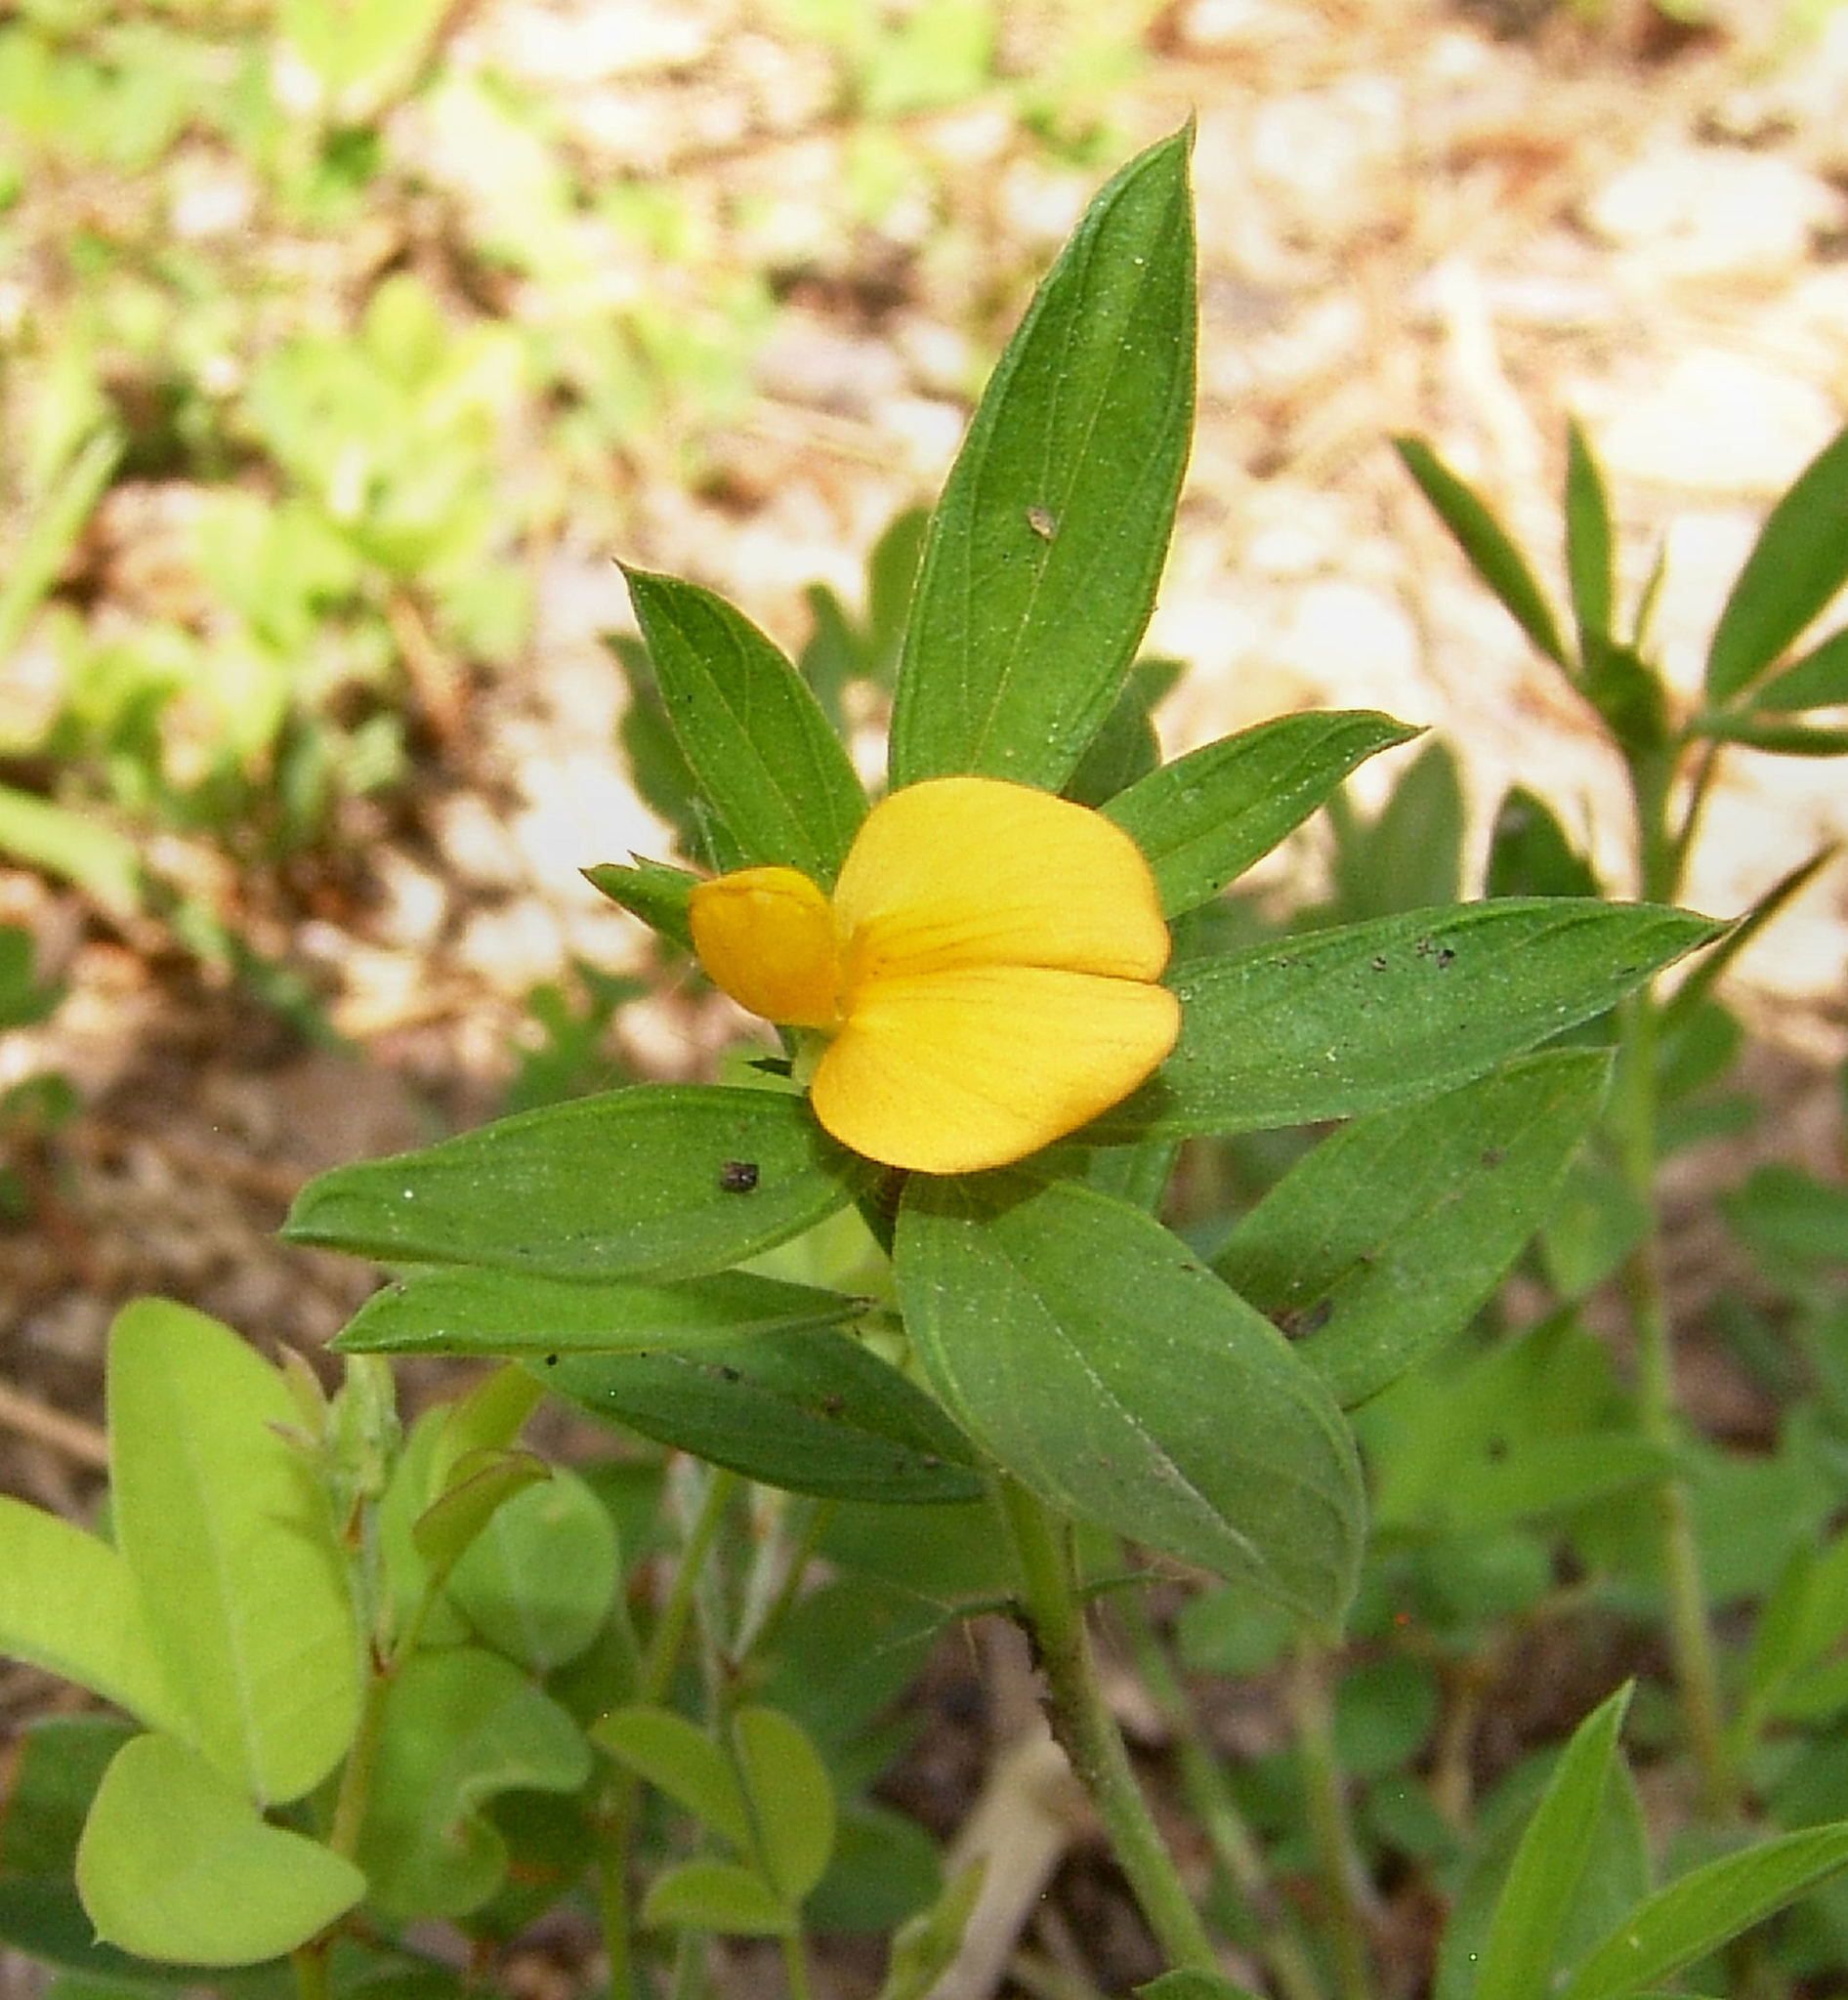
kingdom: Plantae
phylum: Tracheophyta
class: Magnoliopsida
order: Fabales
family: Fabaceae
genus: Stylosanthes
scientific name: Stylosanthes biflora
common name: Two-flower pencil-flower
